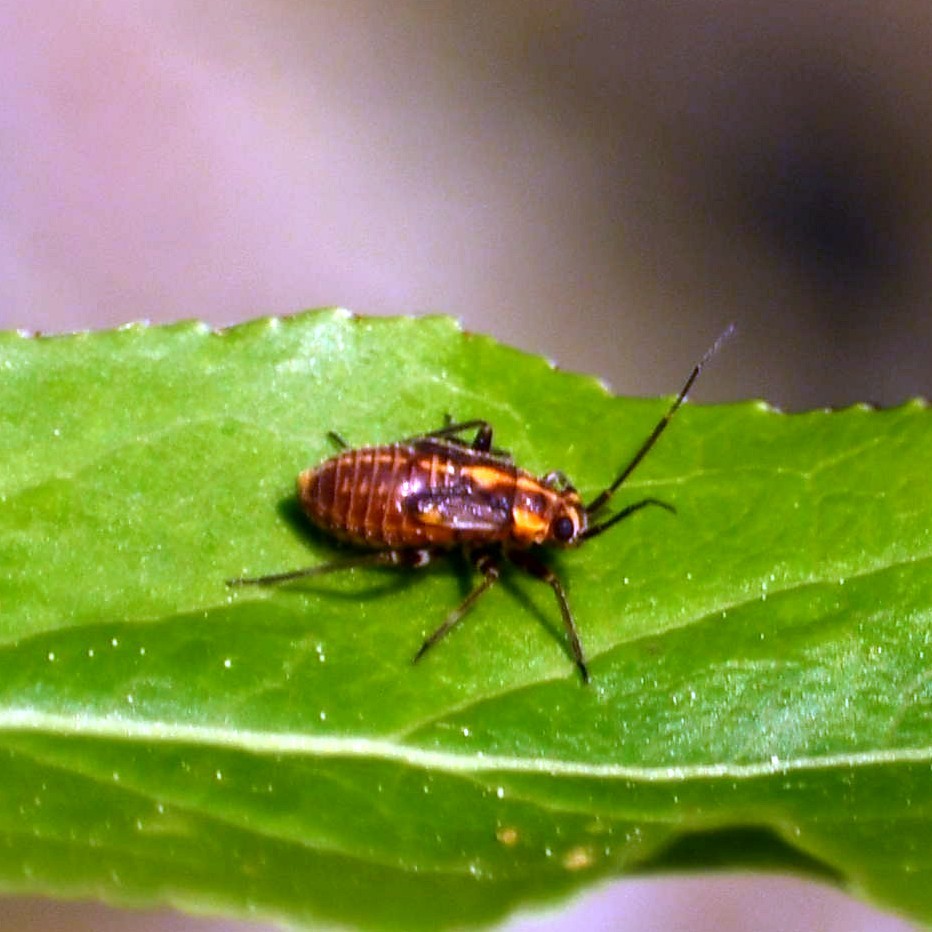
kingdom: Animalia
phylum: Arthropoda
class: Insecta
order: Hemiptera
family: Miridae
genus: Capsodes
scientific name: Capsodes flavomarginatus
